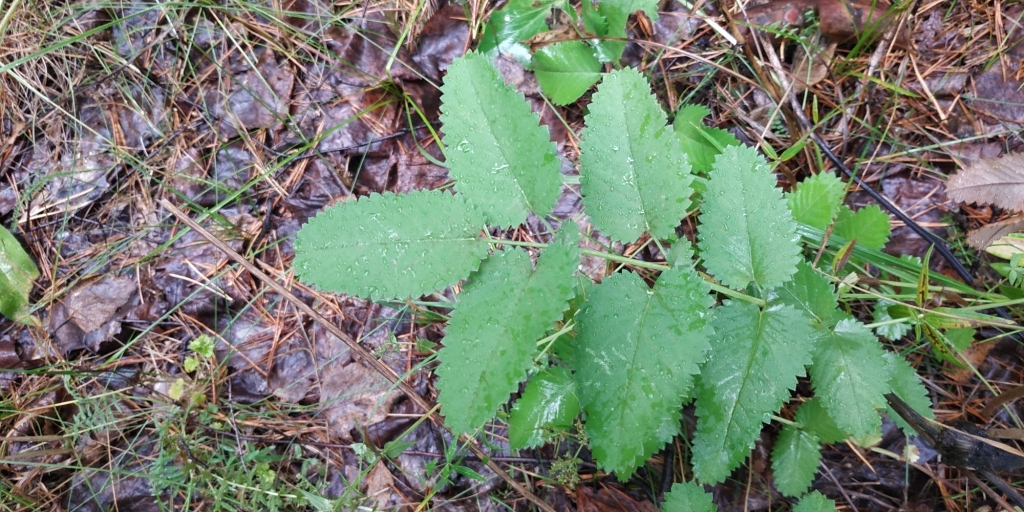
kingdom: Plantae
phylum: Tracheophyta
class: Magnoliopsida
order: Rosales
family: Rosaceae
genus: Sanguisorba
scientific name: Sanguisorba officinalis
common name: Great burnet
